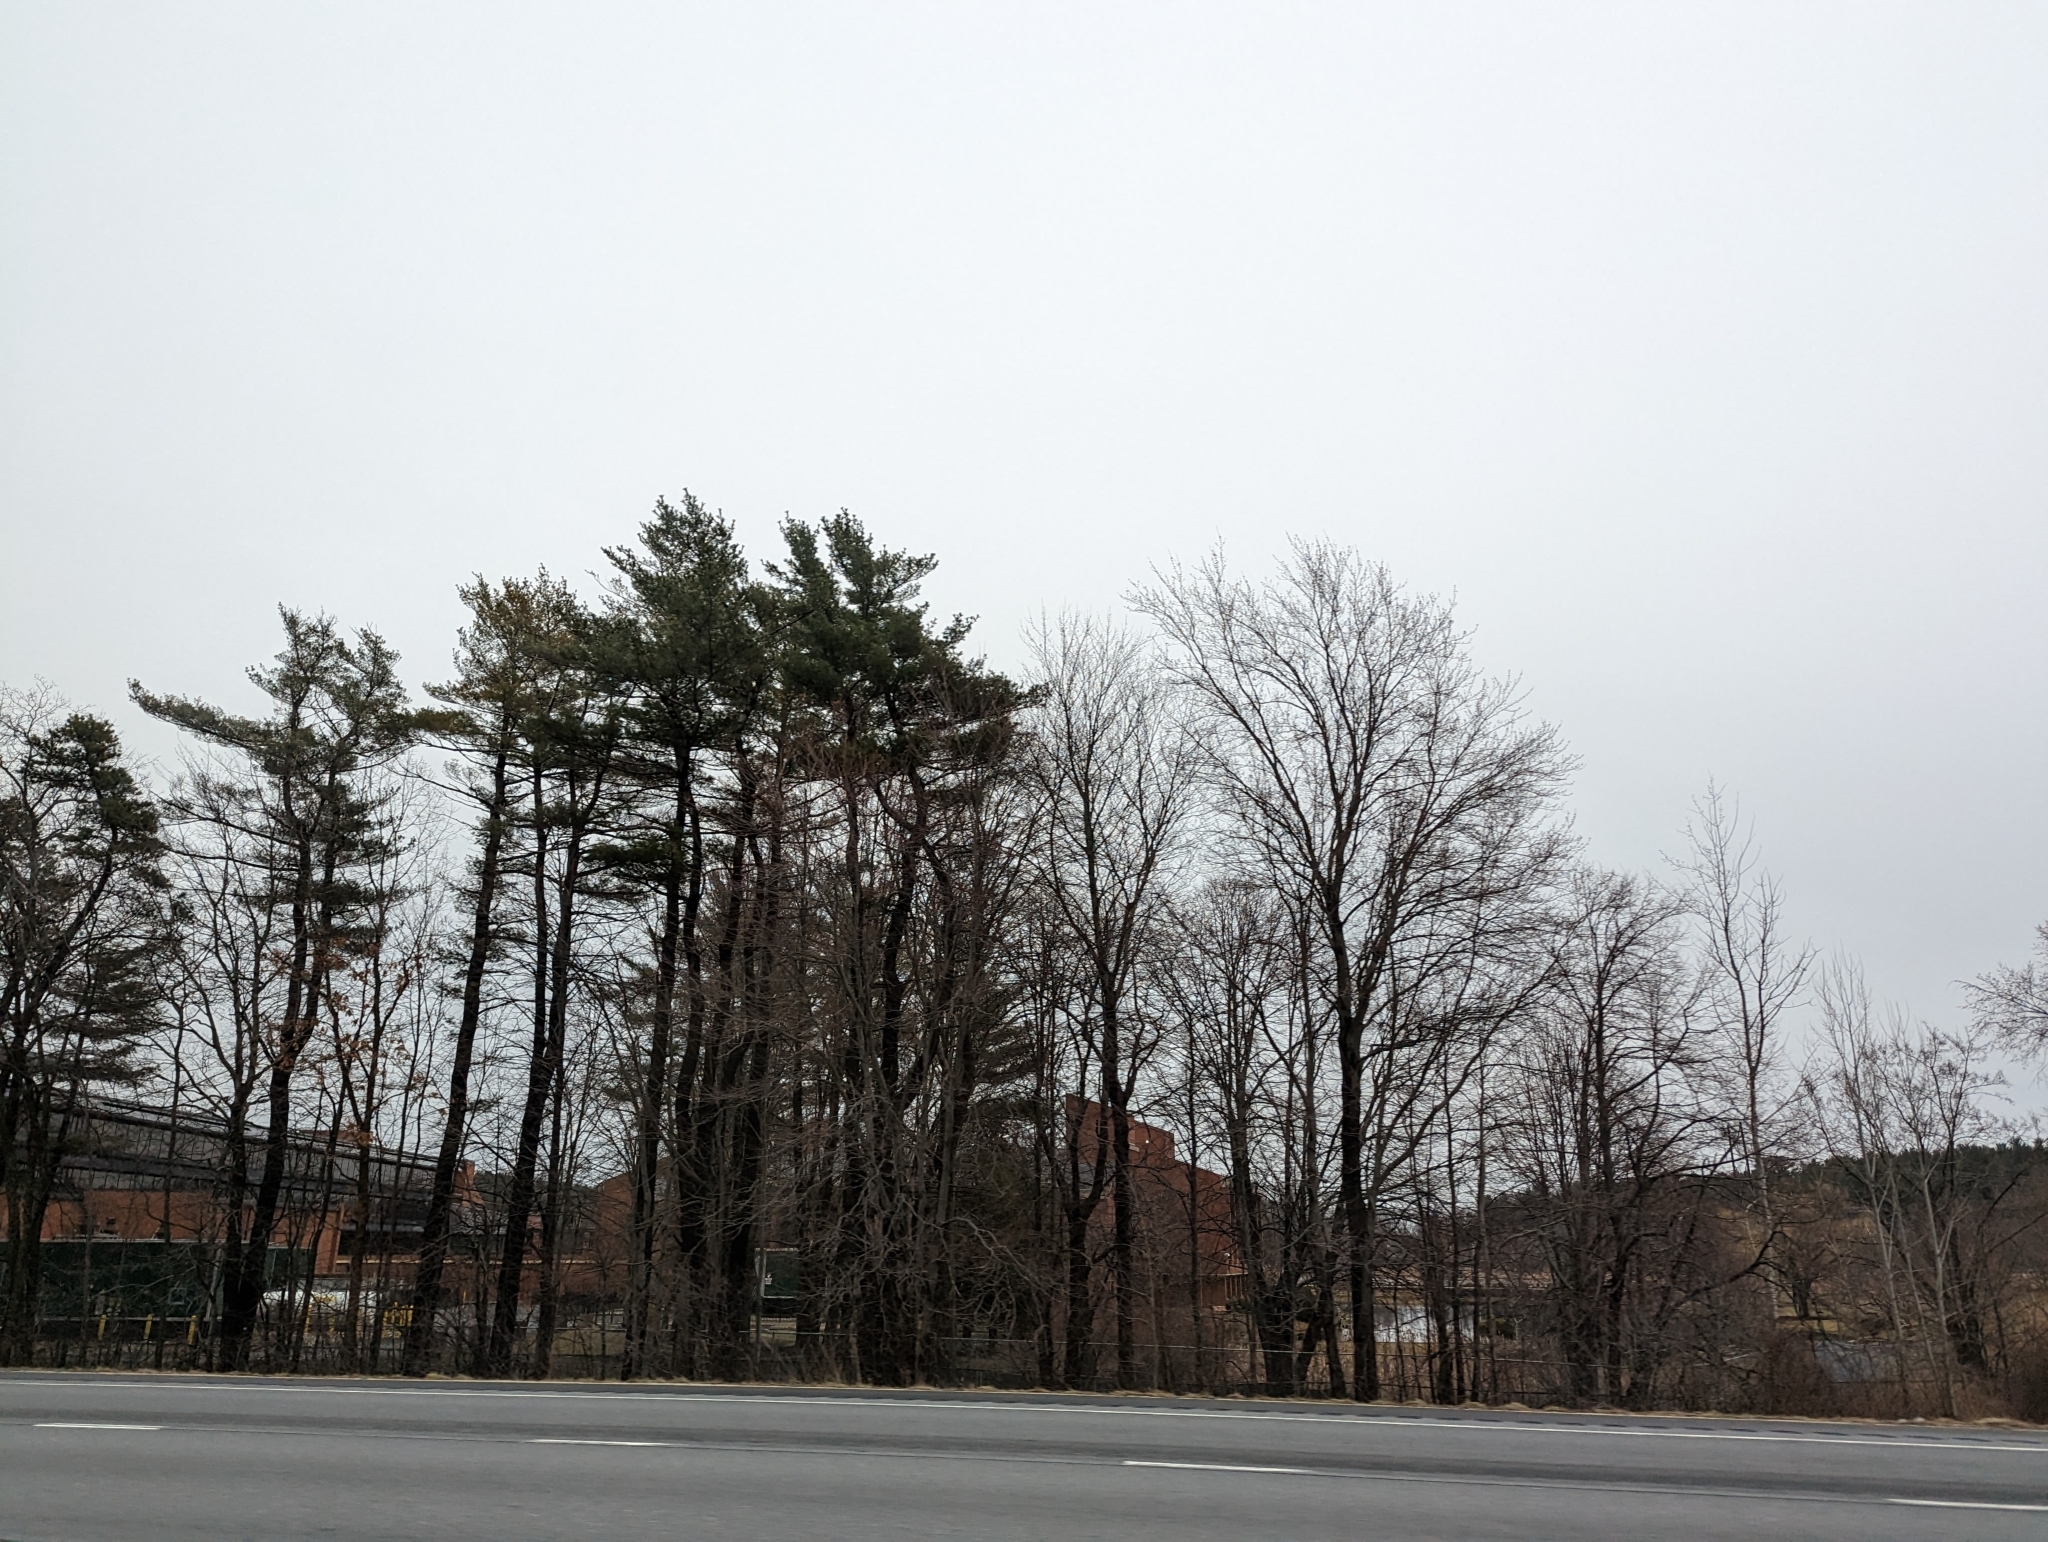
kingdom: Plantae
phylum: Tracheophyta
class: Pinopsida
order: Pinales
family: Pinaceae
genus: Pinus
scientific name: Pinus strobus
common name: Weymouth pine
